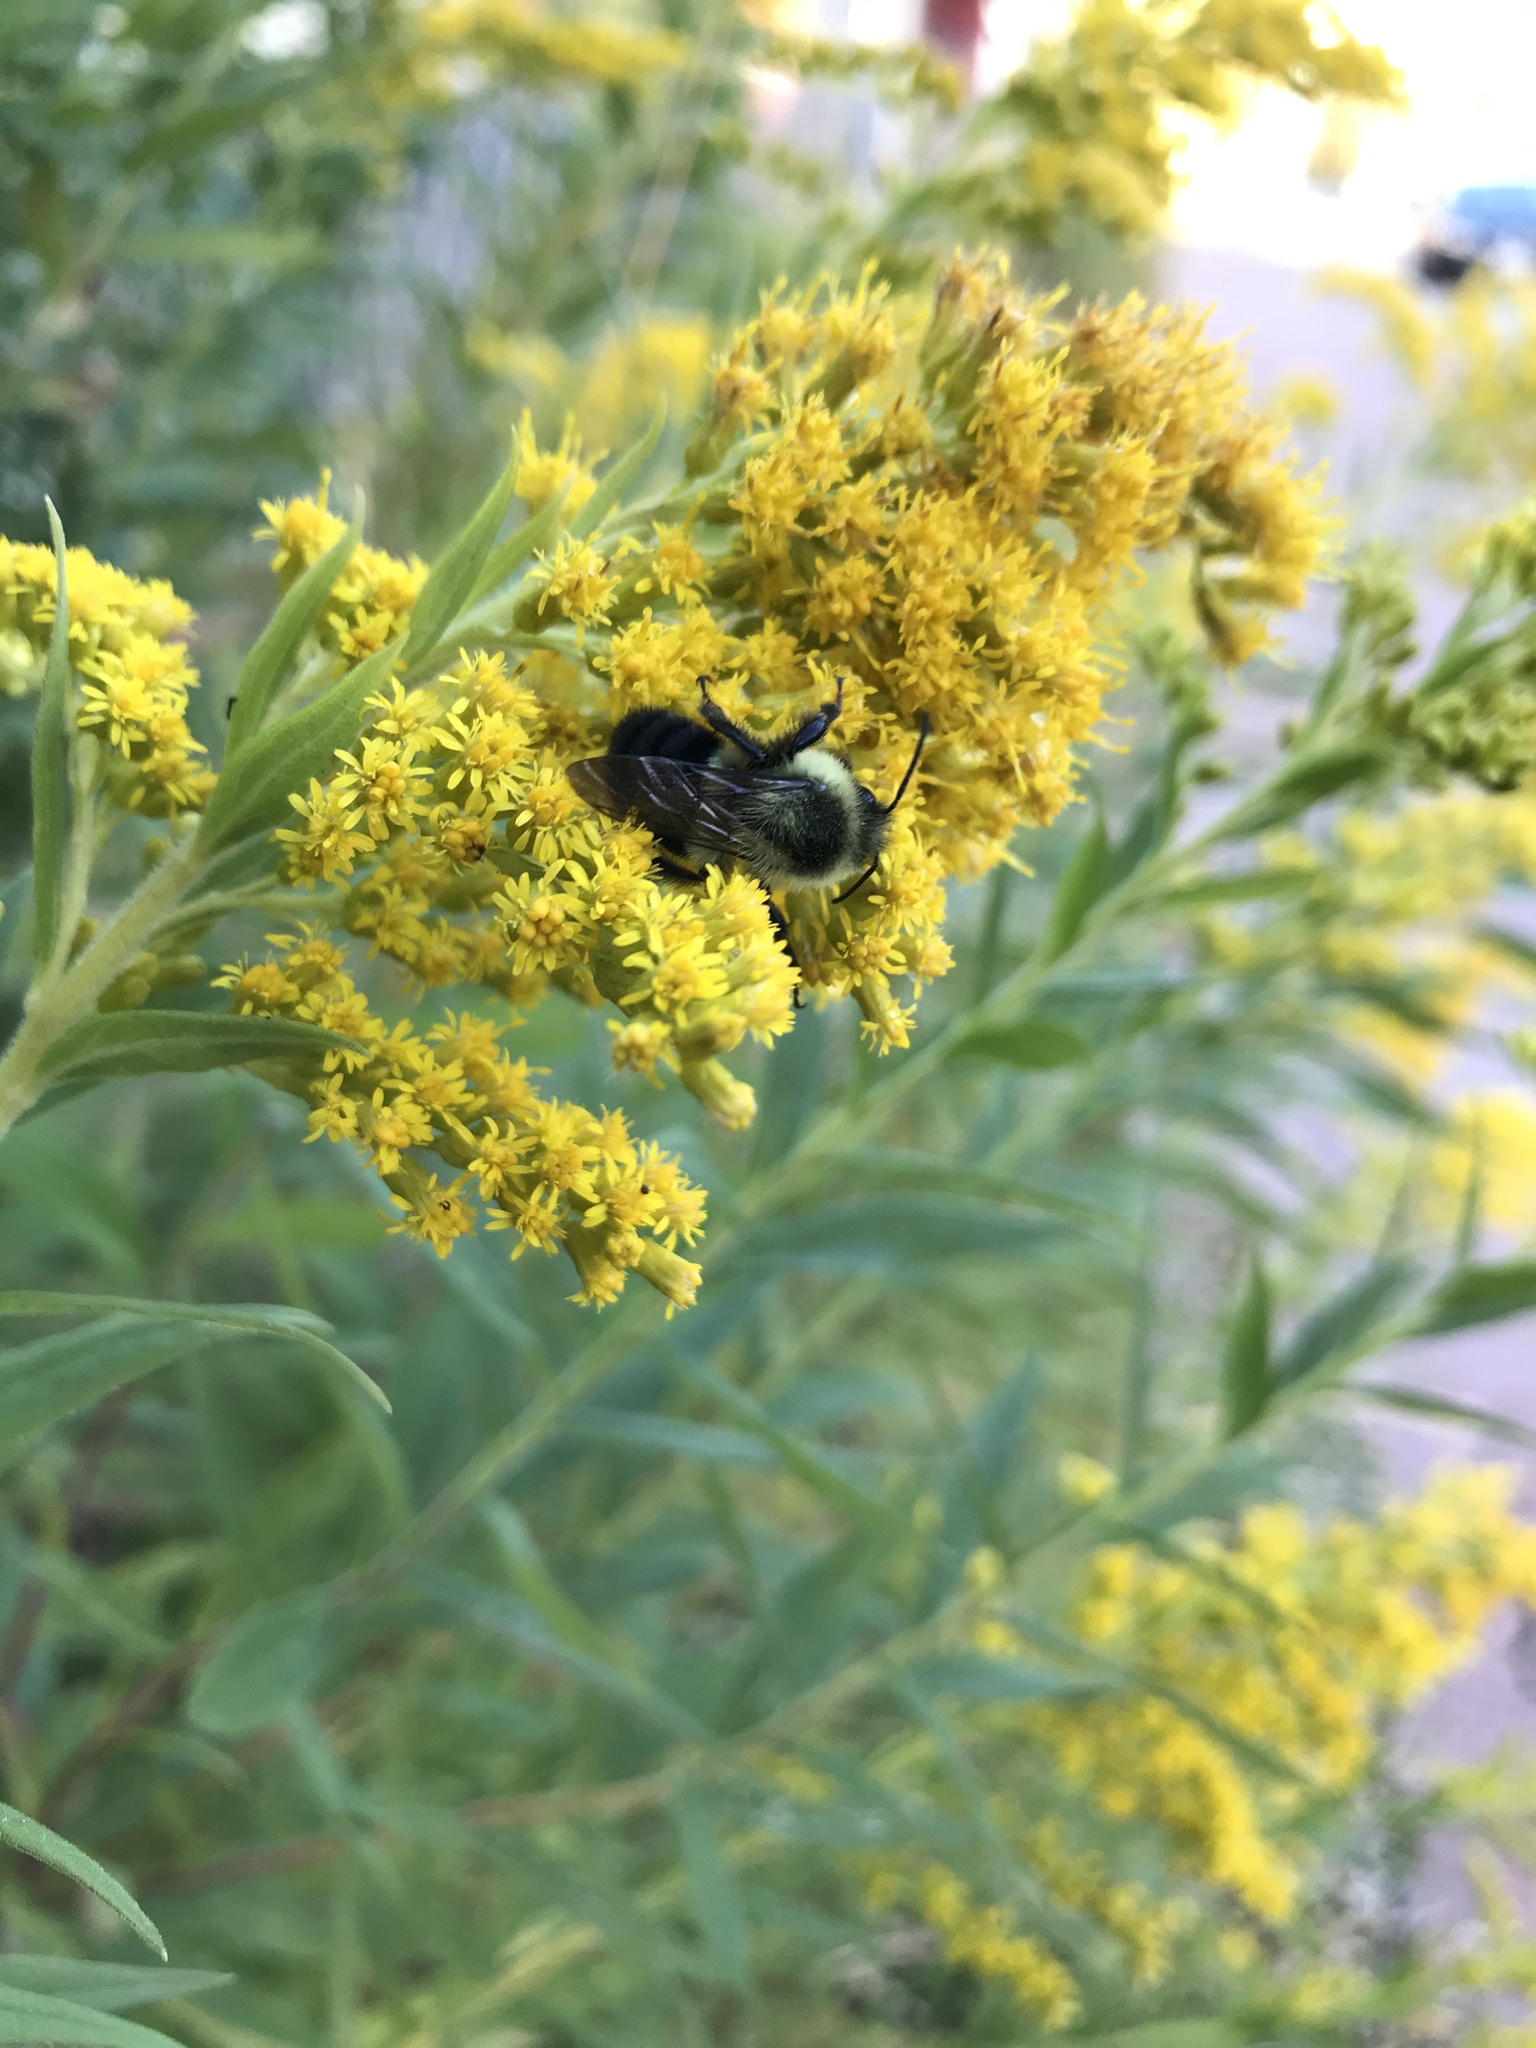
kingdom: Animalia
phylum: Arthropoda
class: Insecta
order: Hymenoptera
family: Apidae
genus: Bombus
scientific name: Bombus impatiens
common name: Common eastern bumble bee
